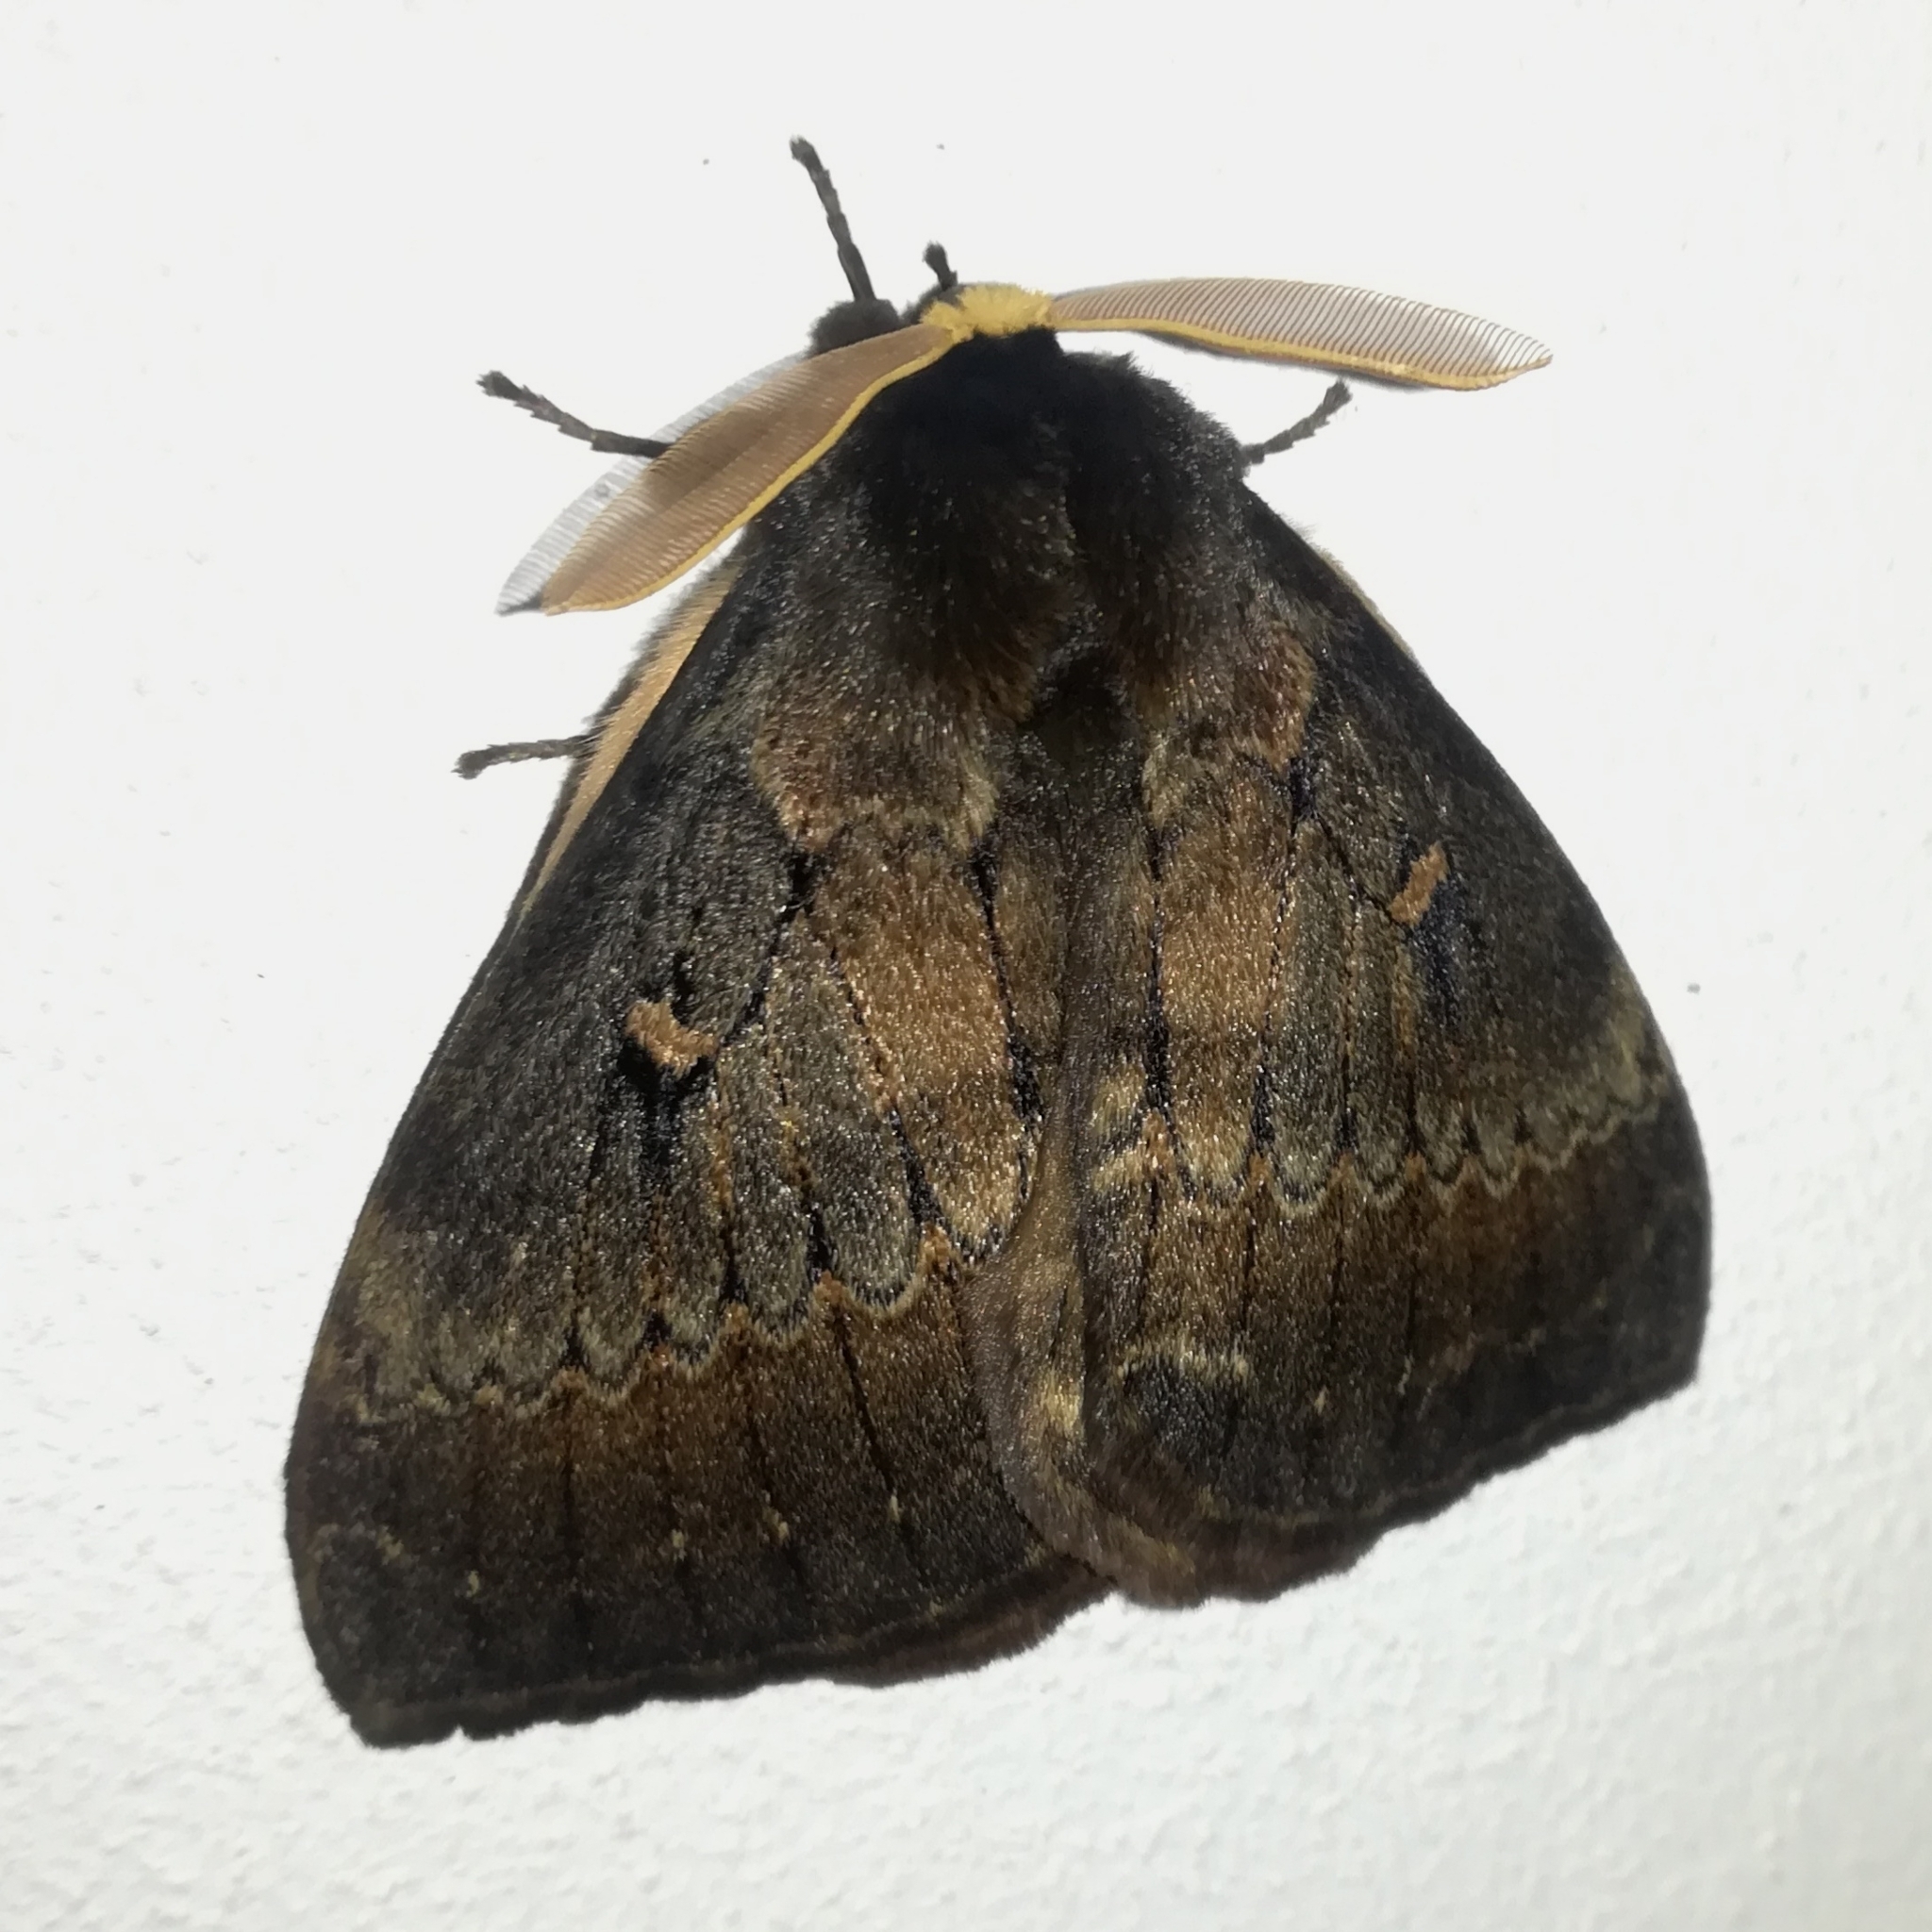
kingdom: Animalia
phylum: Arthropoda
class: Insecta
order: Lepidoptera
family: Eupterotidae
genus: Jana
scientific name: Jana tantalus
